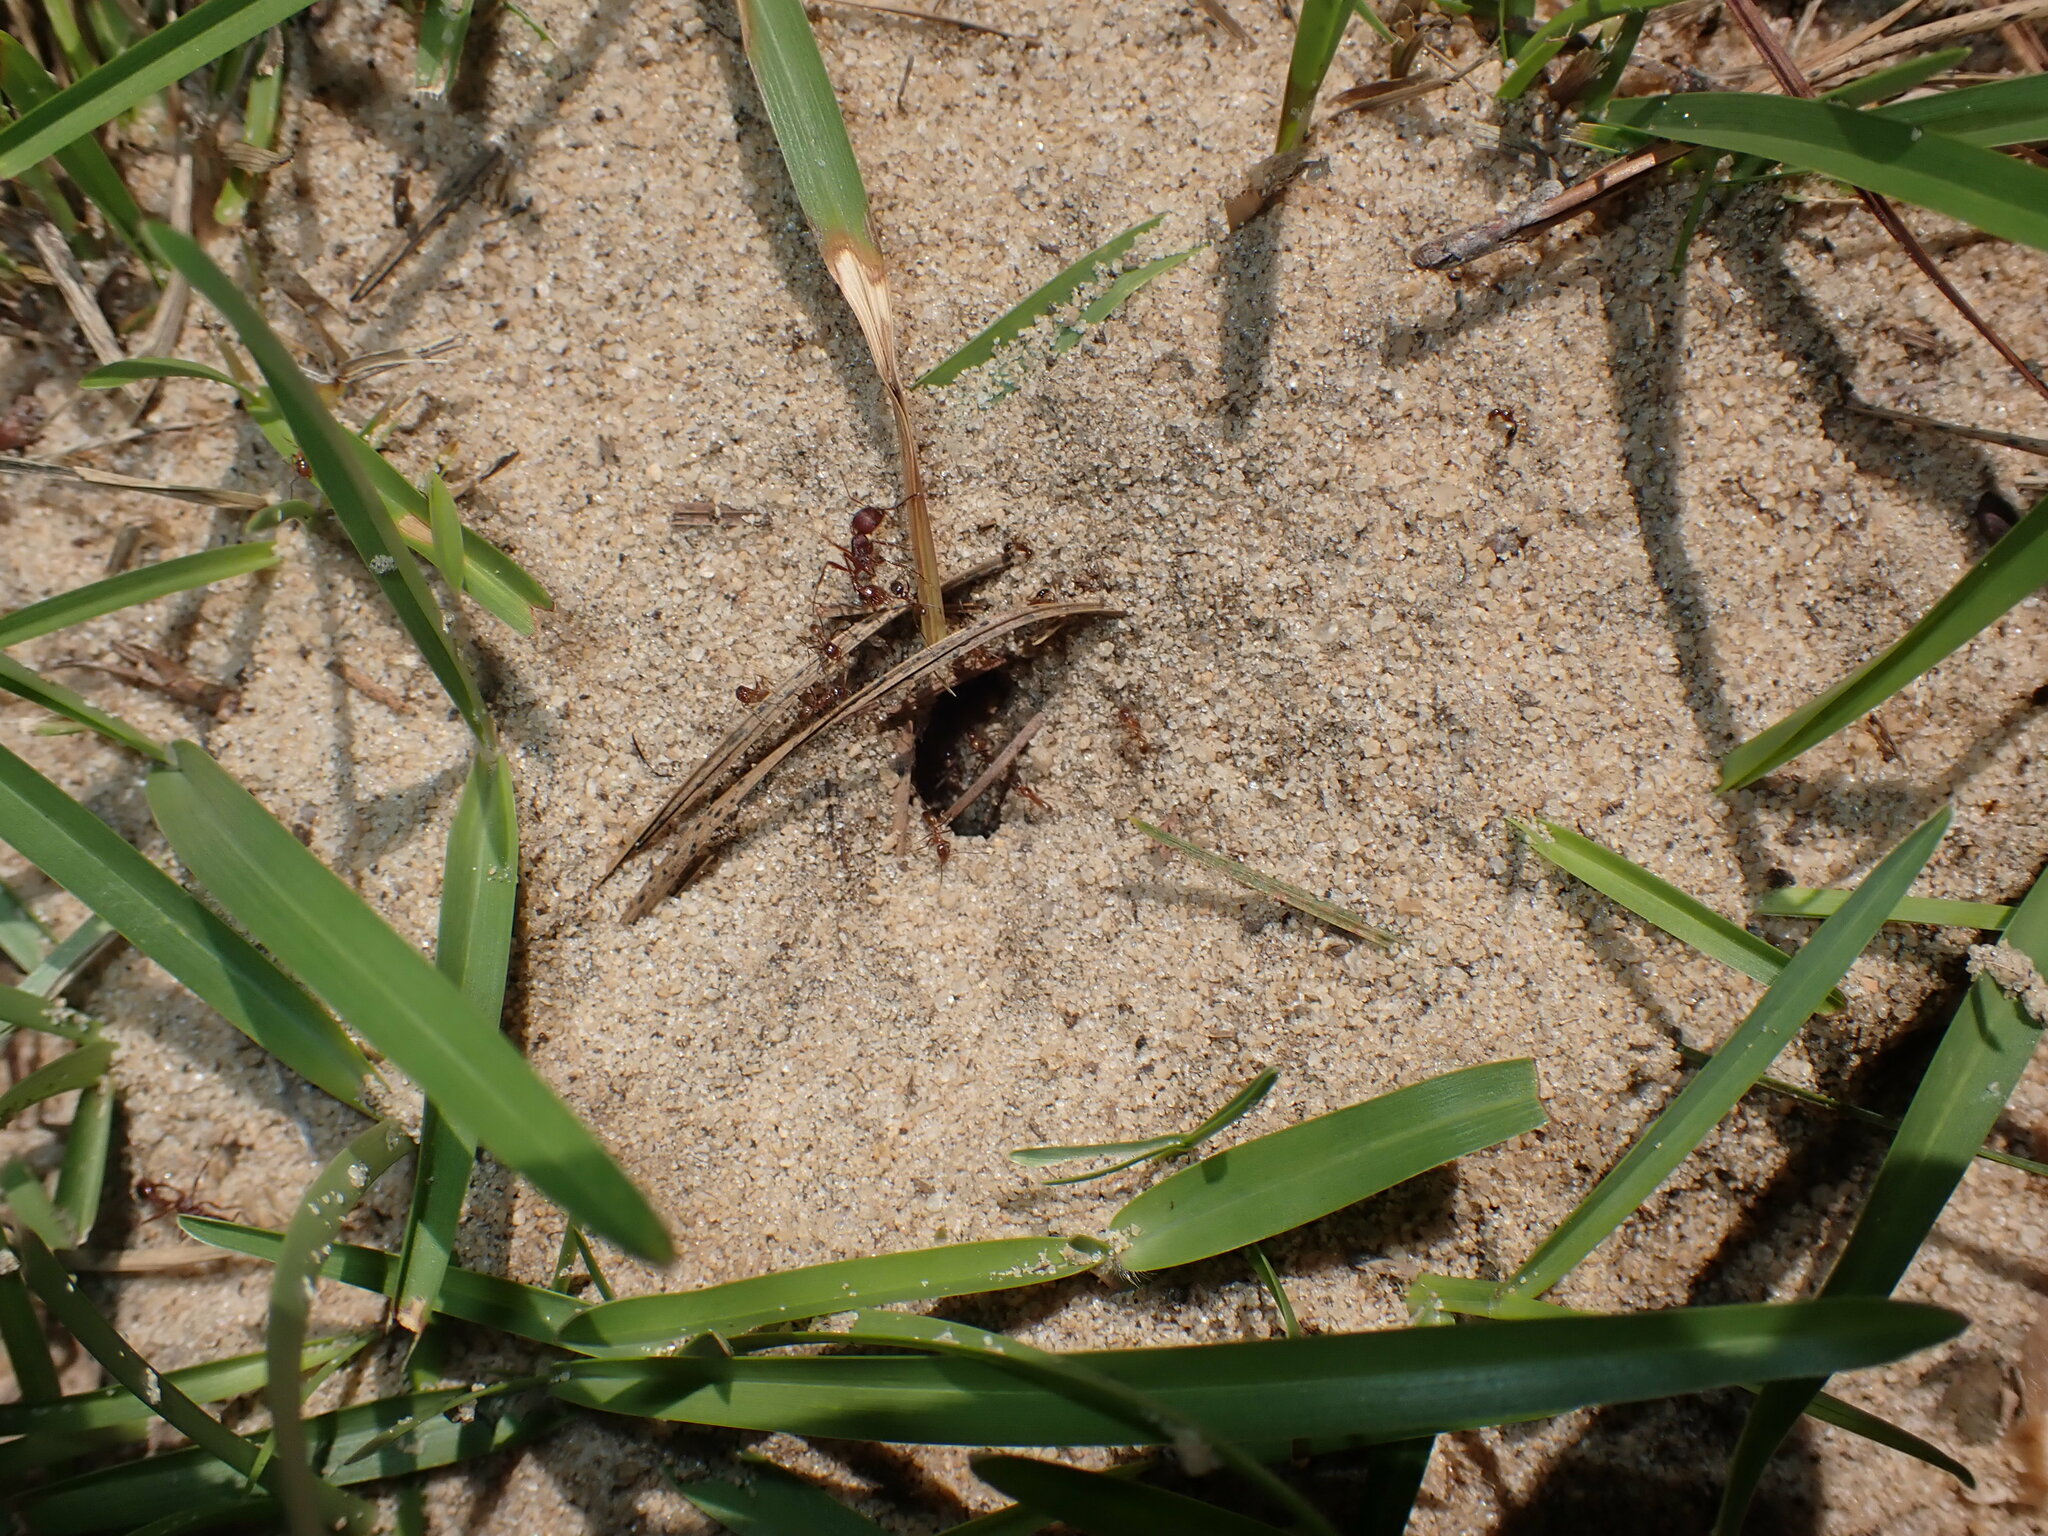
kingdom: Animalia
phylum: Arthropoda
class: Insecta
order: Hymenoptera
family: Formicidae
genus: Pogonomyrmex
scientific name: Pogonomyrmex badius
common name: Florida harvester ant
